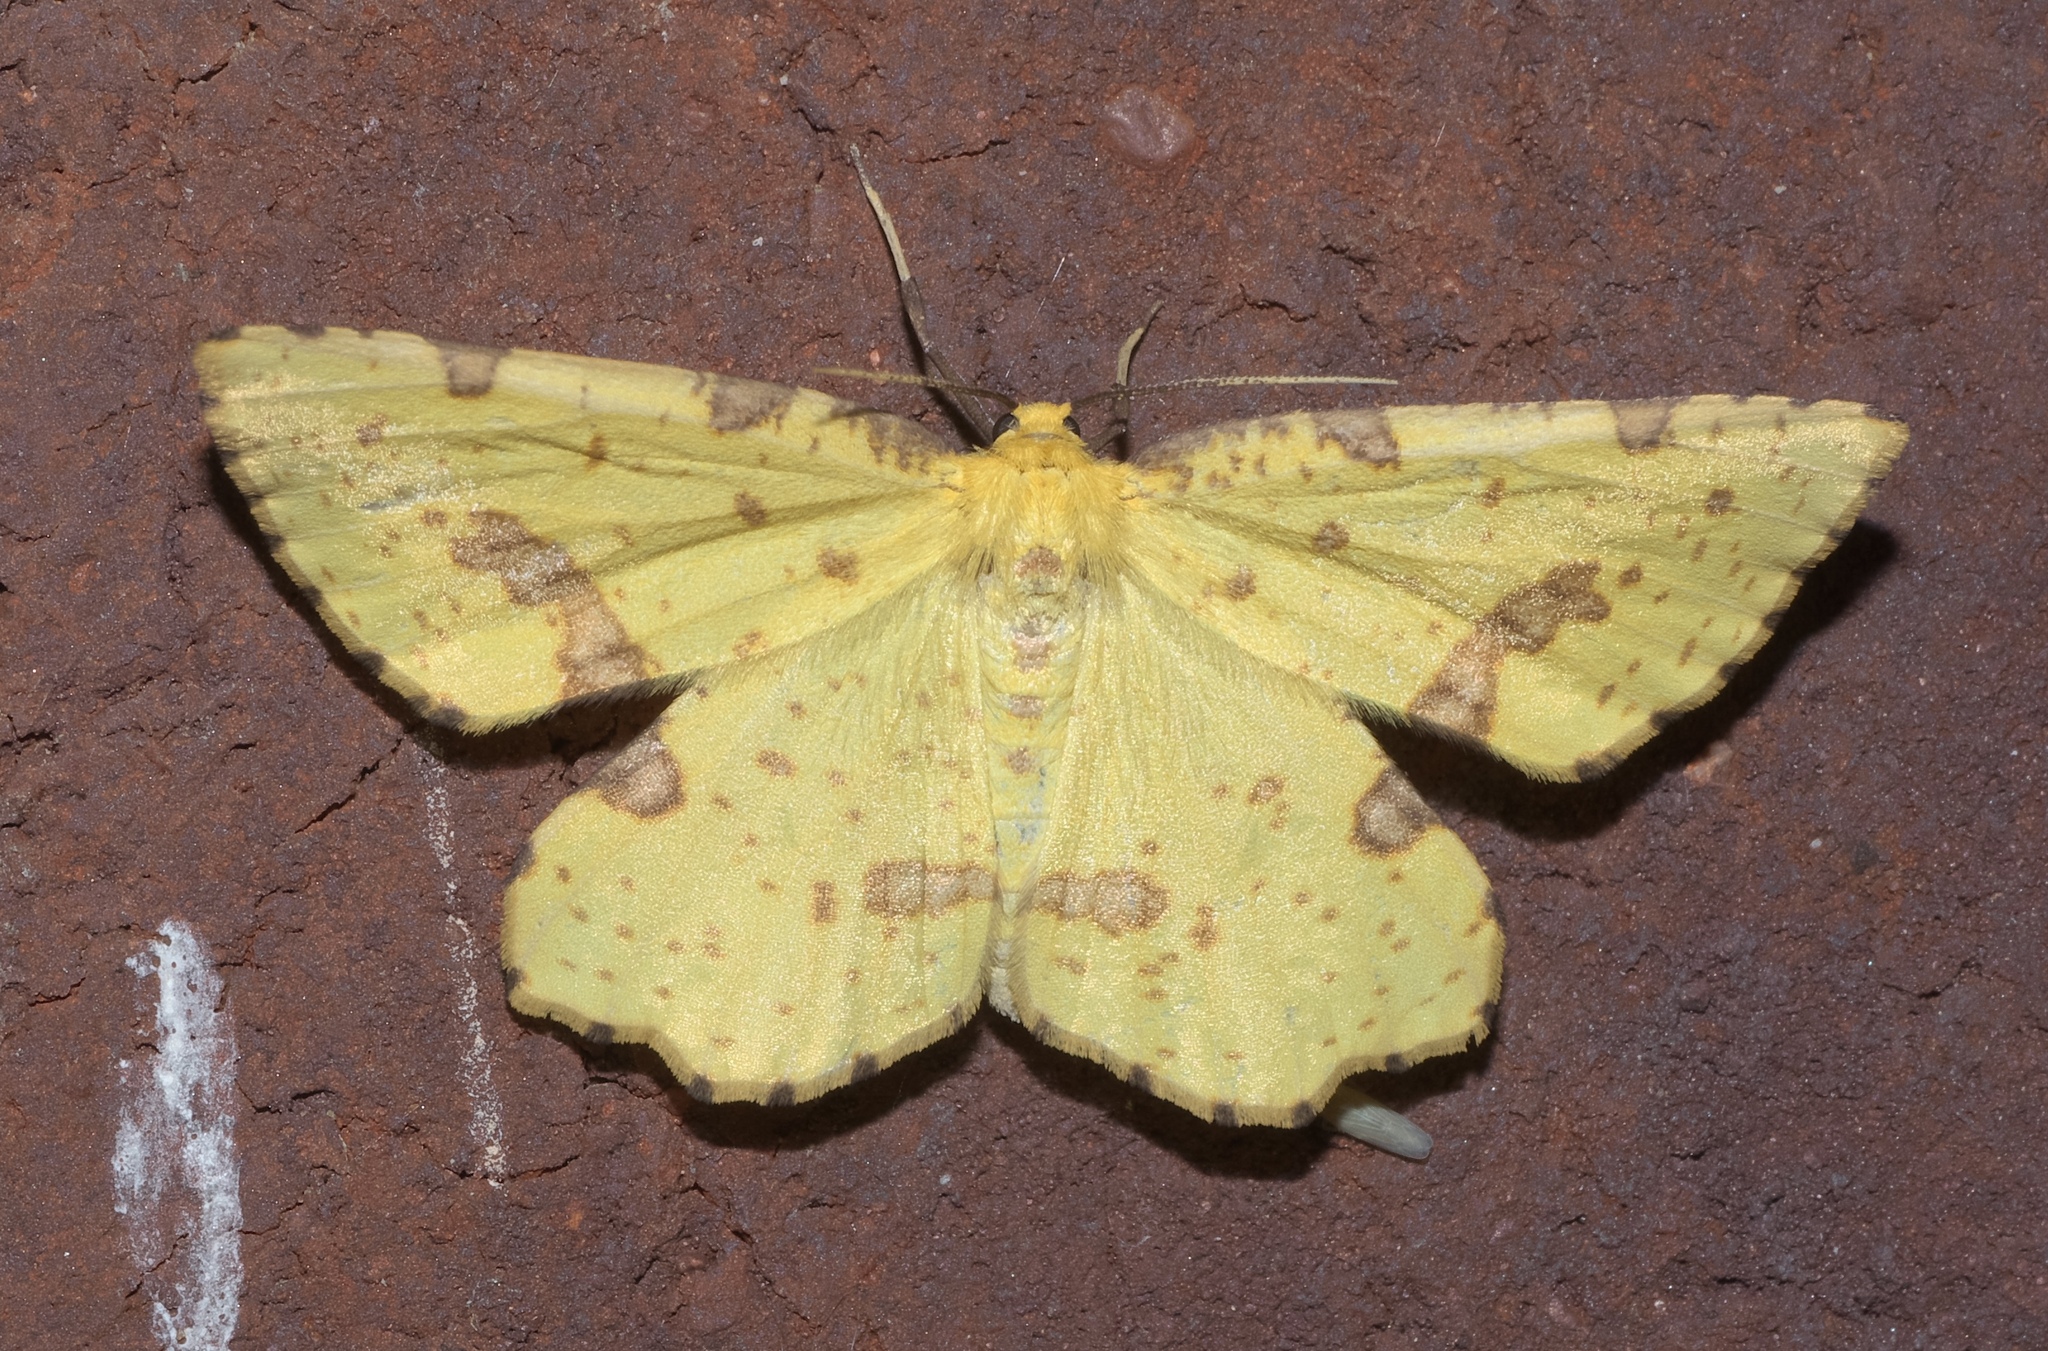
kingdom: Animalia
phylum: Arthropoda
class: Insecta
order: Lepidoptera
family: Geometridae
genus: Xanthotype
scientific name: Xanthotype
